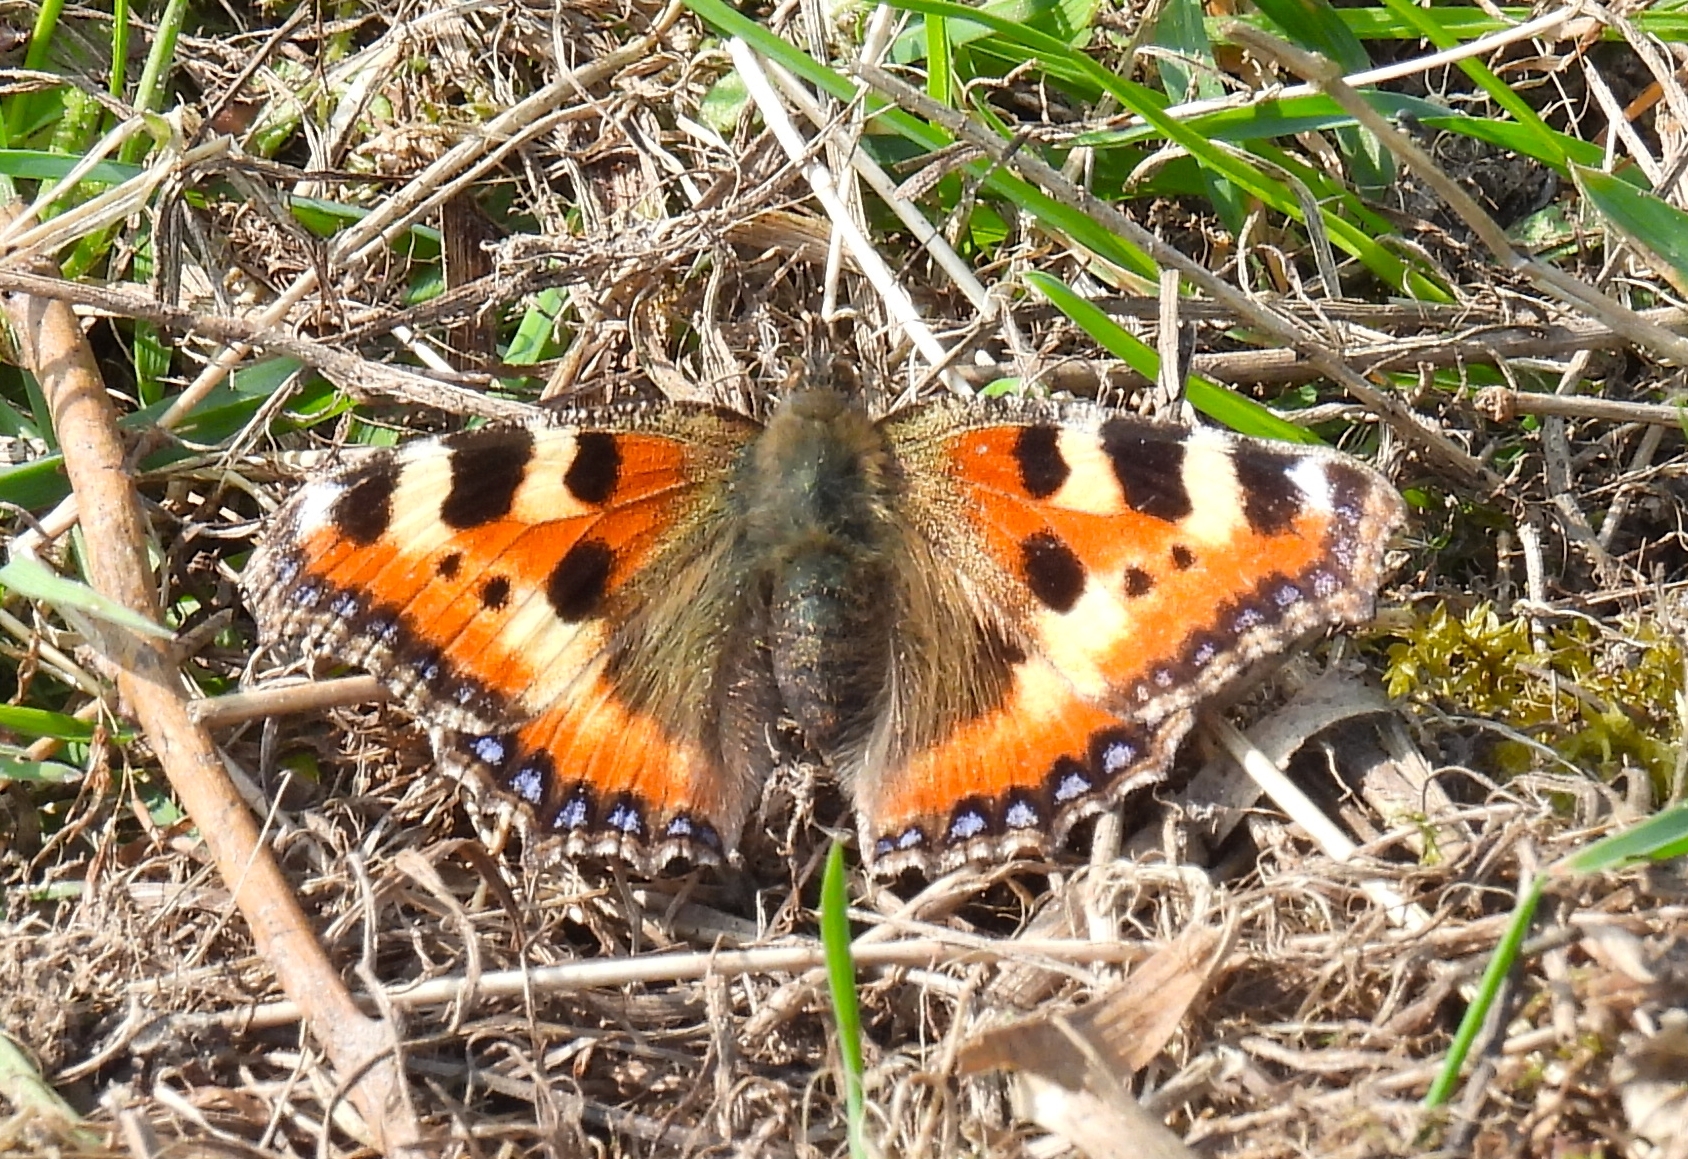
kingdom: Animalia
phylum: Arthropoda
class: Insecta
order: Lepidoptera
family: Nymphalidae
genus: Aglais
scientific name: Aglais urticae
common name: Small tortoiseshell
